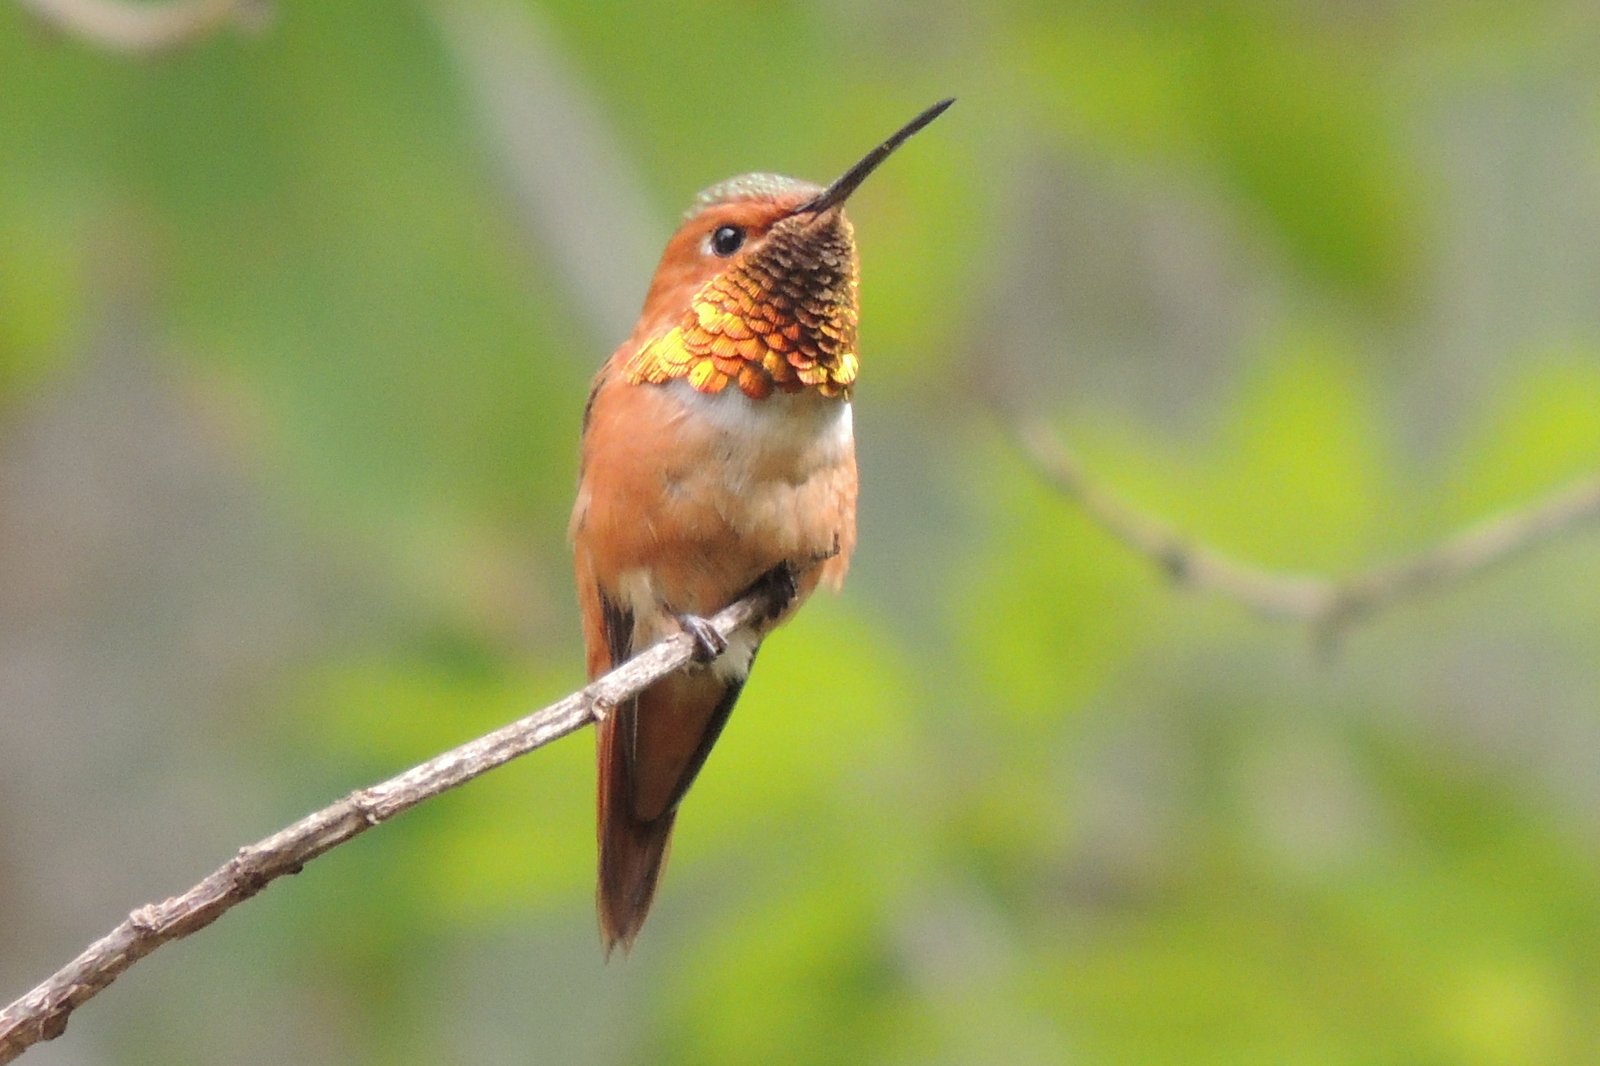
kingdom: Animalia
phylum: Chordata
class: Aves
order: Apodiformes
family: Trochilidae
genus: Selasphorus
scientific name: Selasphorus sasin
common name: Allen's hummingbird
